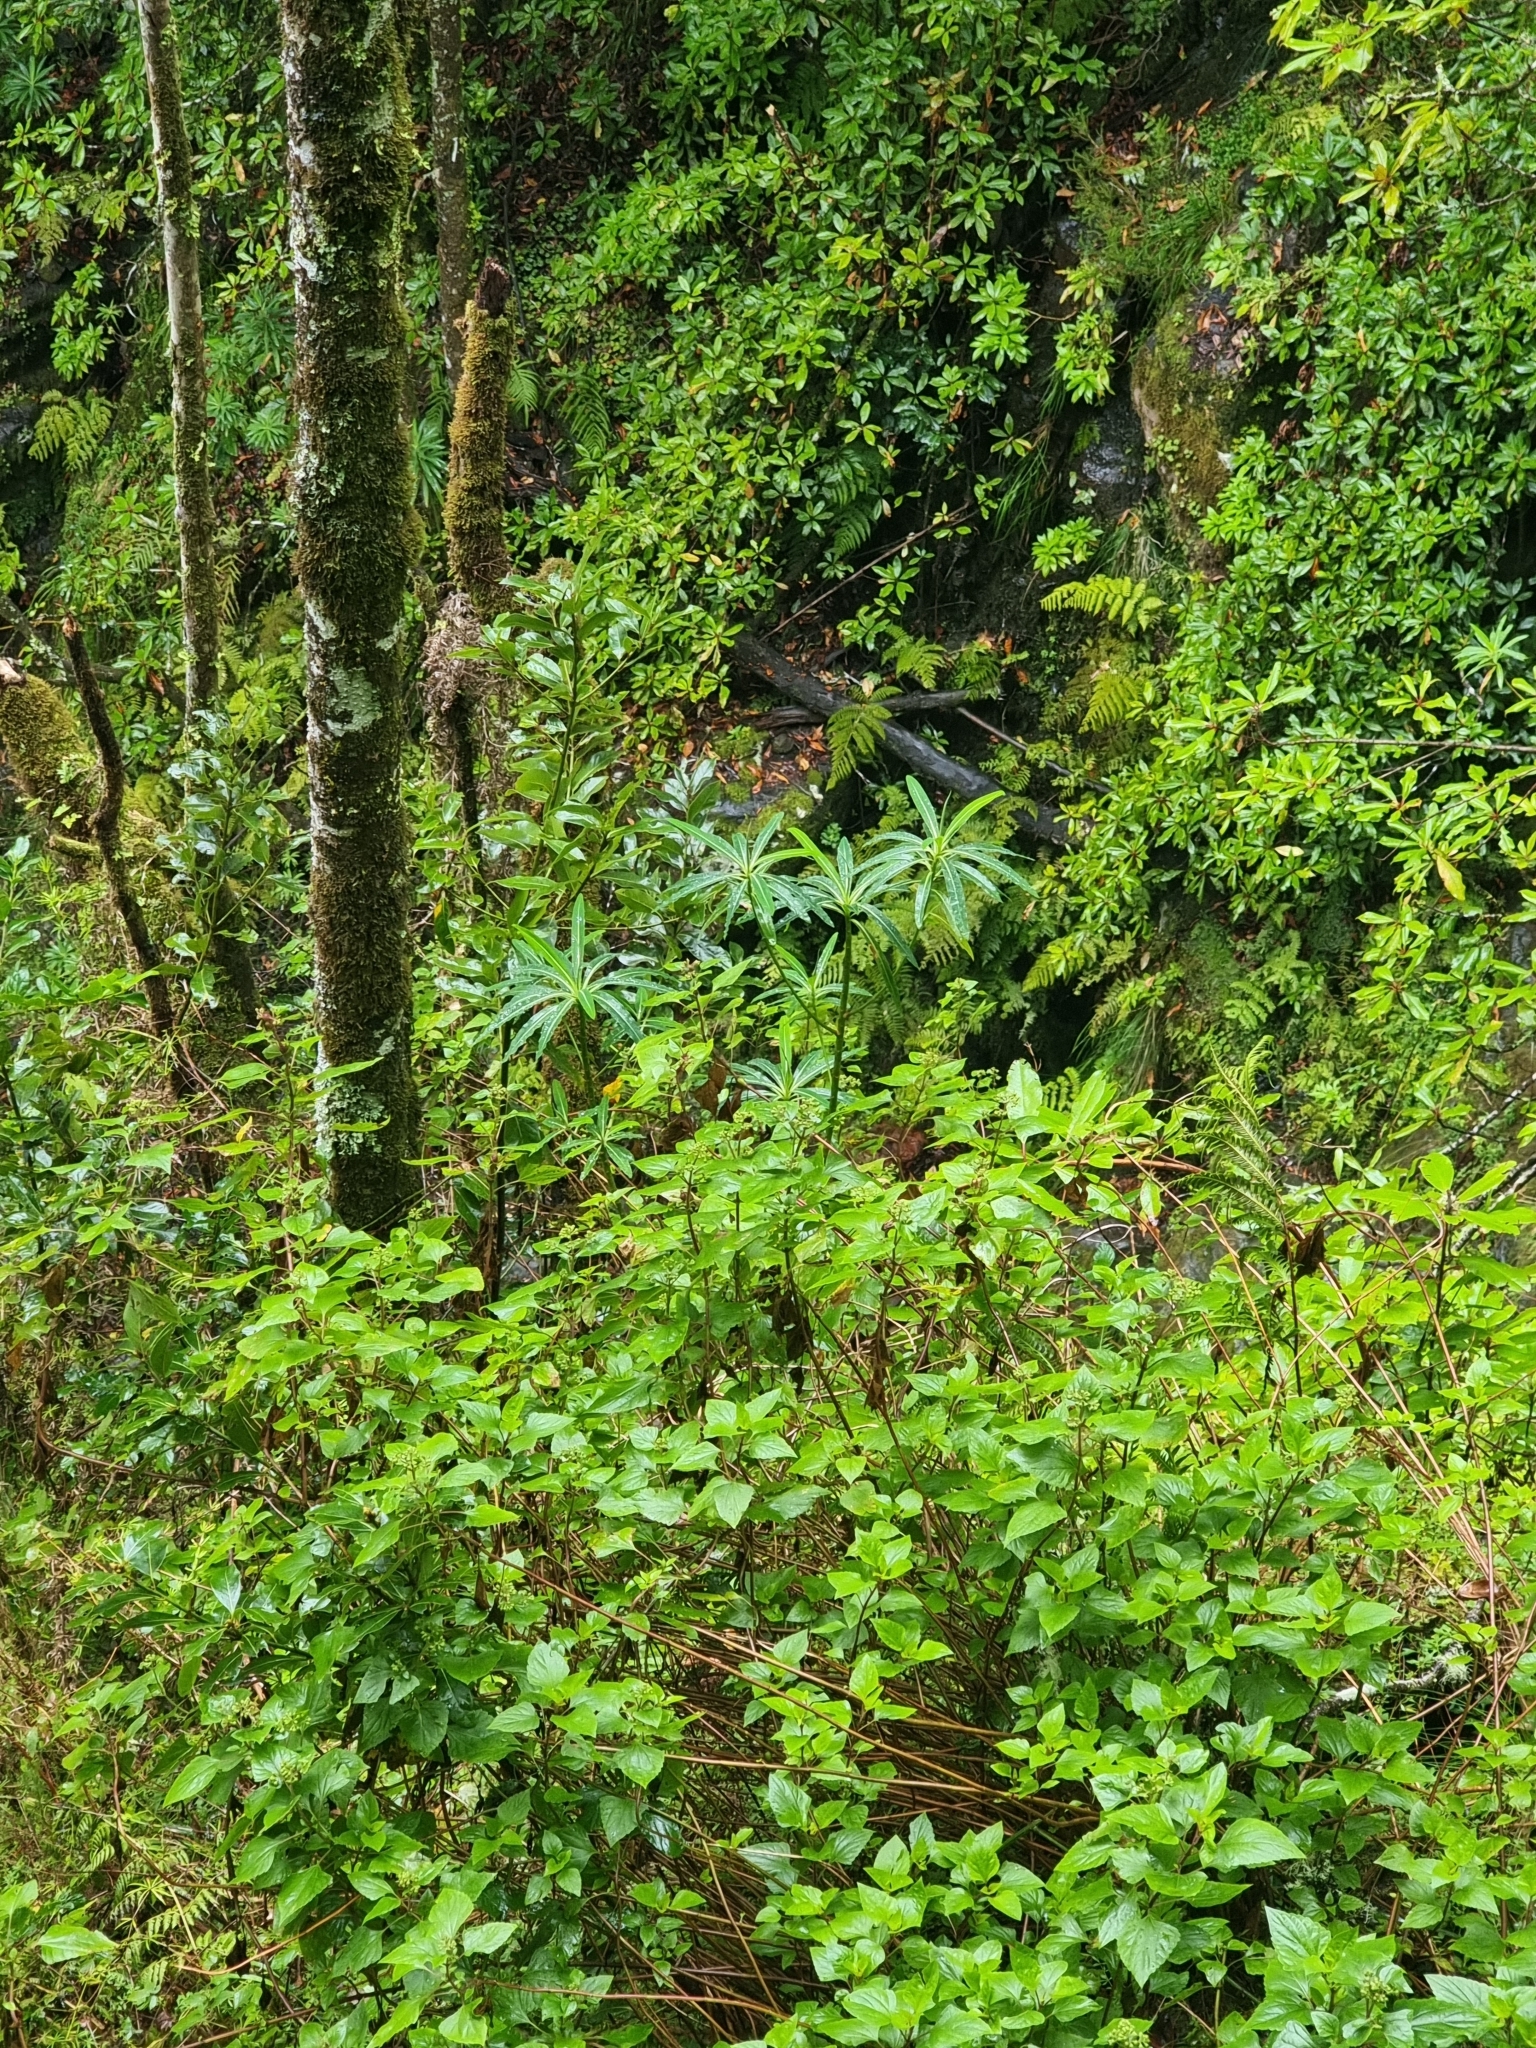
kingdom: Plantae
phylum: Tracheophyta
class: Magnoliopsida
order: Malpighiales
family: Euphorbiaceae
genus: Euphorbia
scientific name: Euphorbia mellifera
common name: Canary spurge
